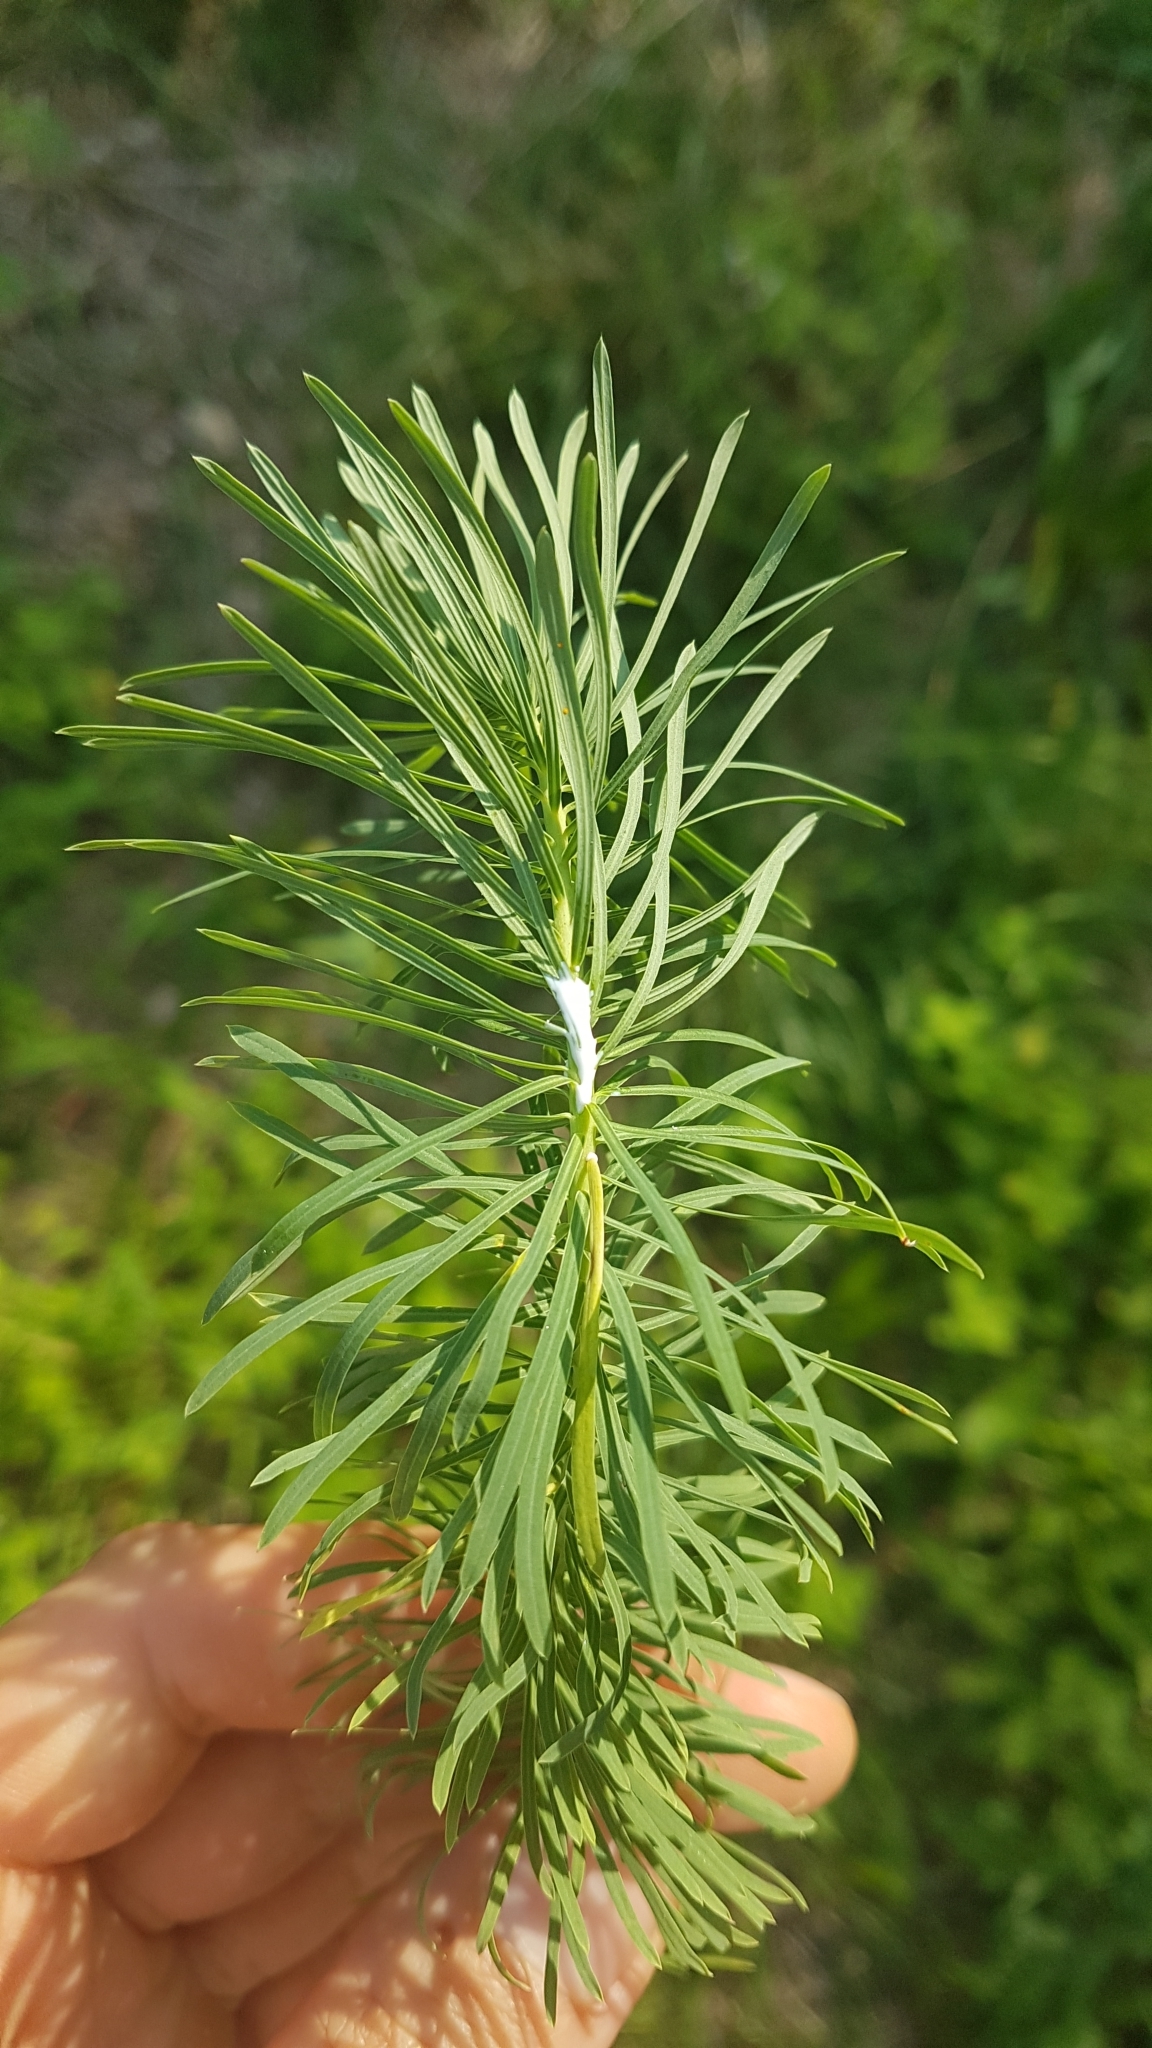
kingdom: Plantae
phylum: Tracheophyta
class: Magnoliopsida
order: Malpighiales
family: Euphorbiaceae
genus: Euphorbia
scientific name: Euphorbia cyparissias
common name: Cypress spurge
